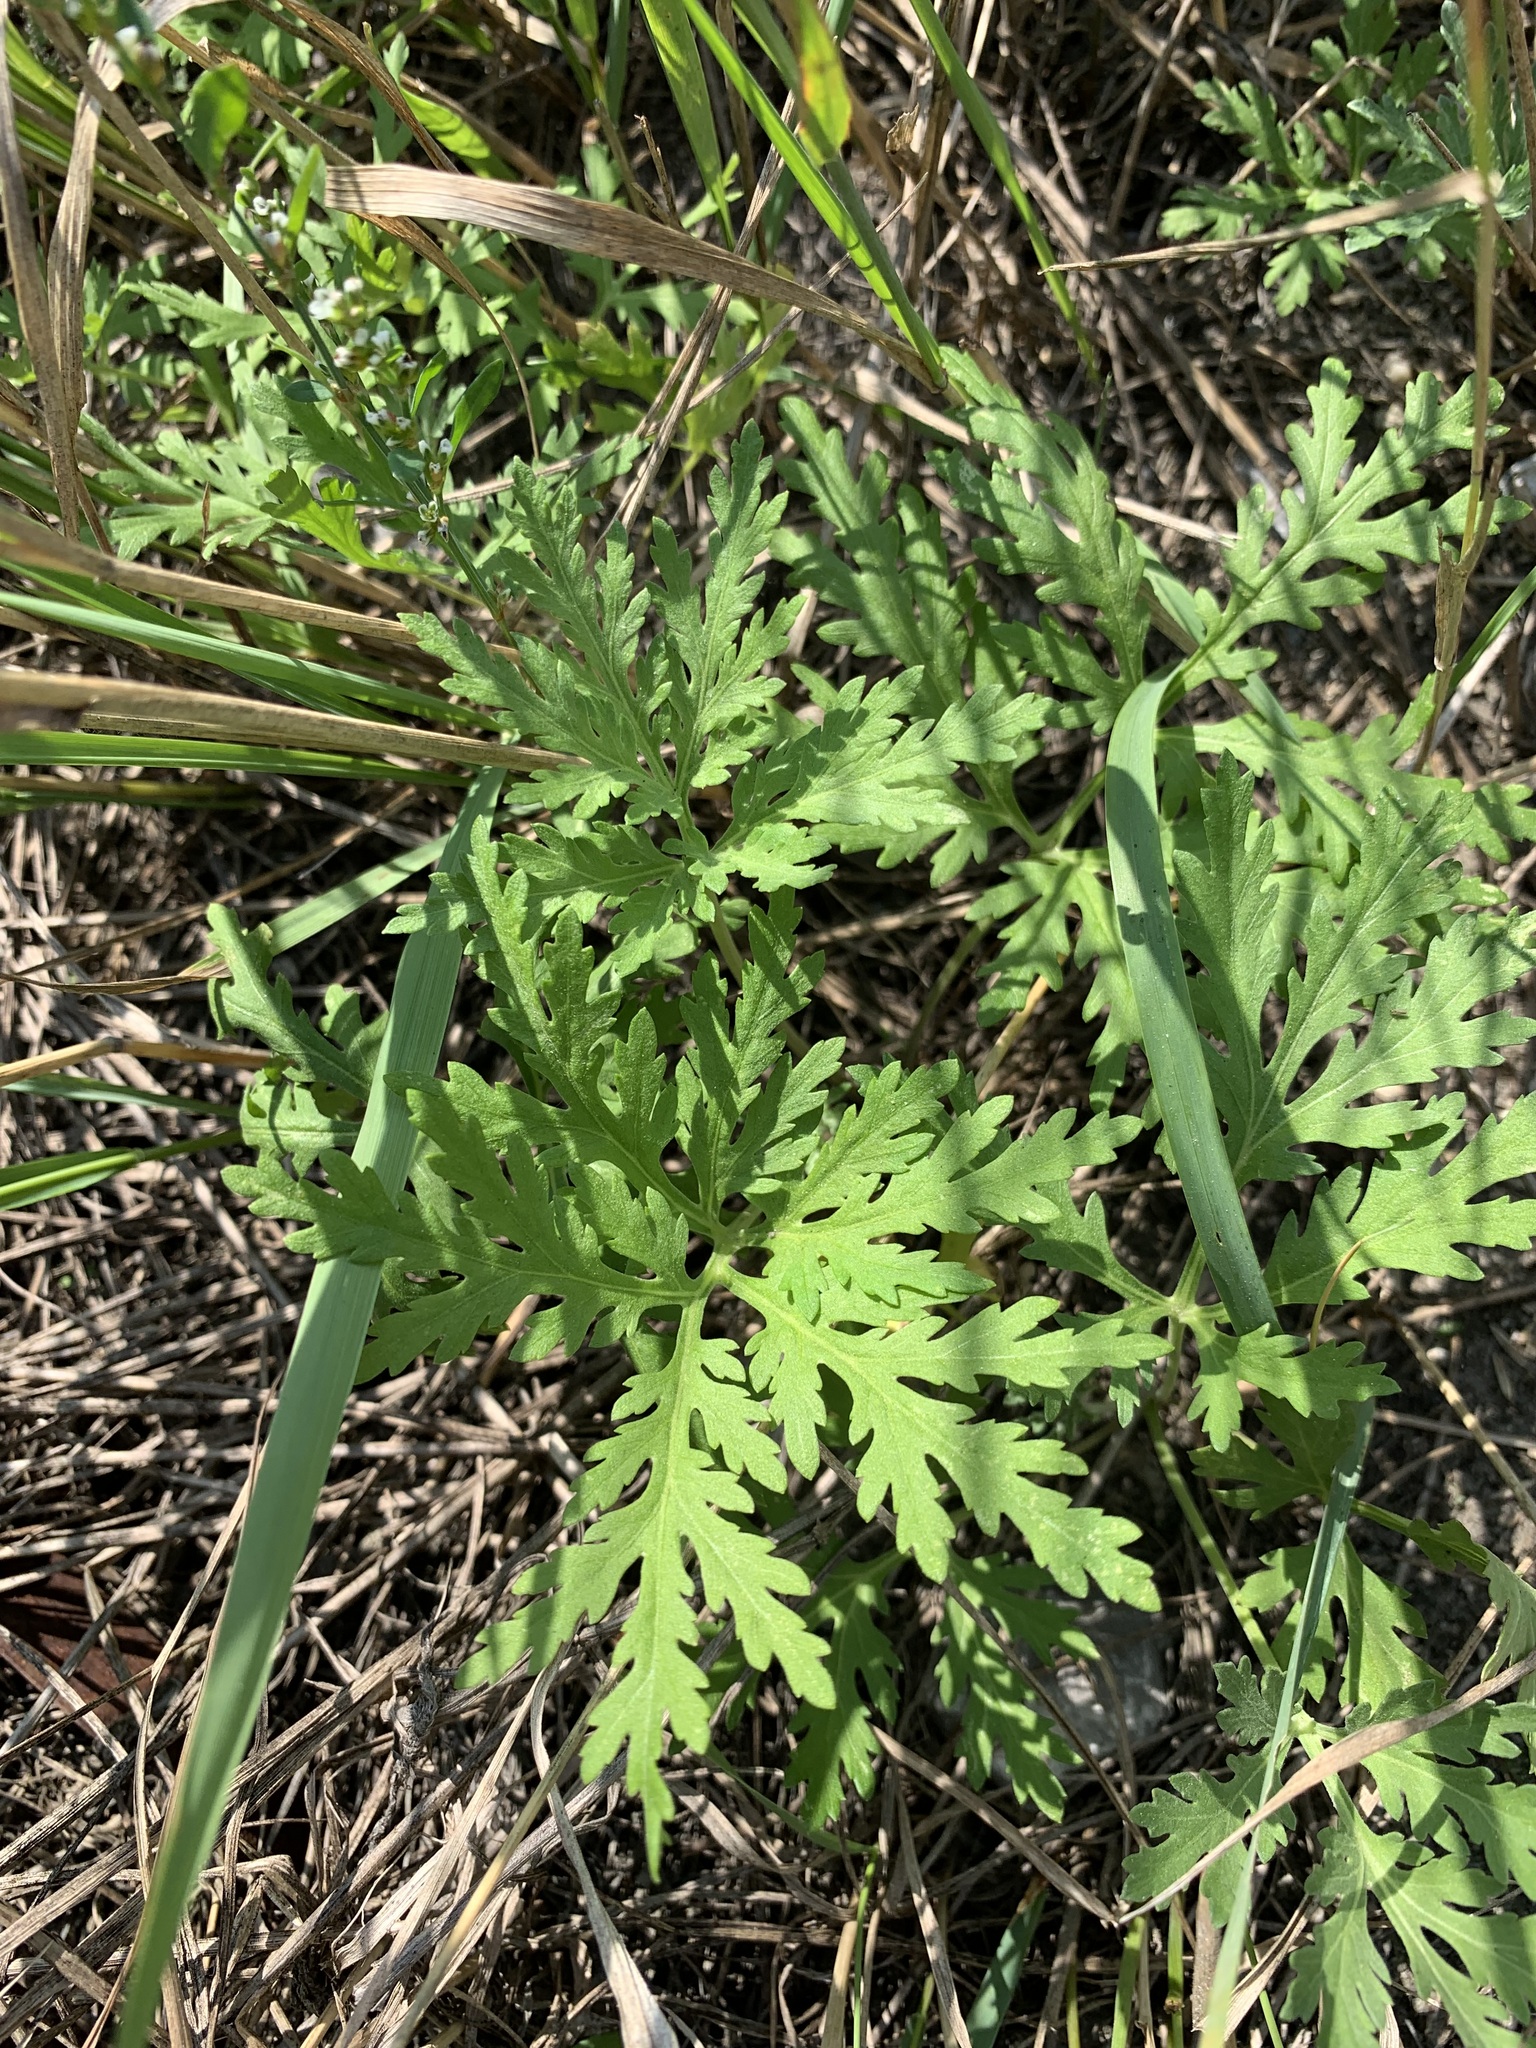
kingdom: Plantae
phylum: Tracheophyta
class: Magnoliopsida
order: Asterales
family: Asteraceae
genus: Artemisia
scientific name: Artemisia sieversiana
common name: Sieversian wormwood
